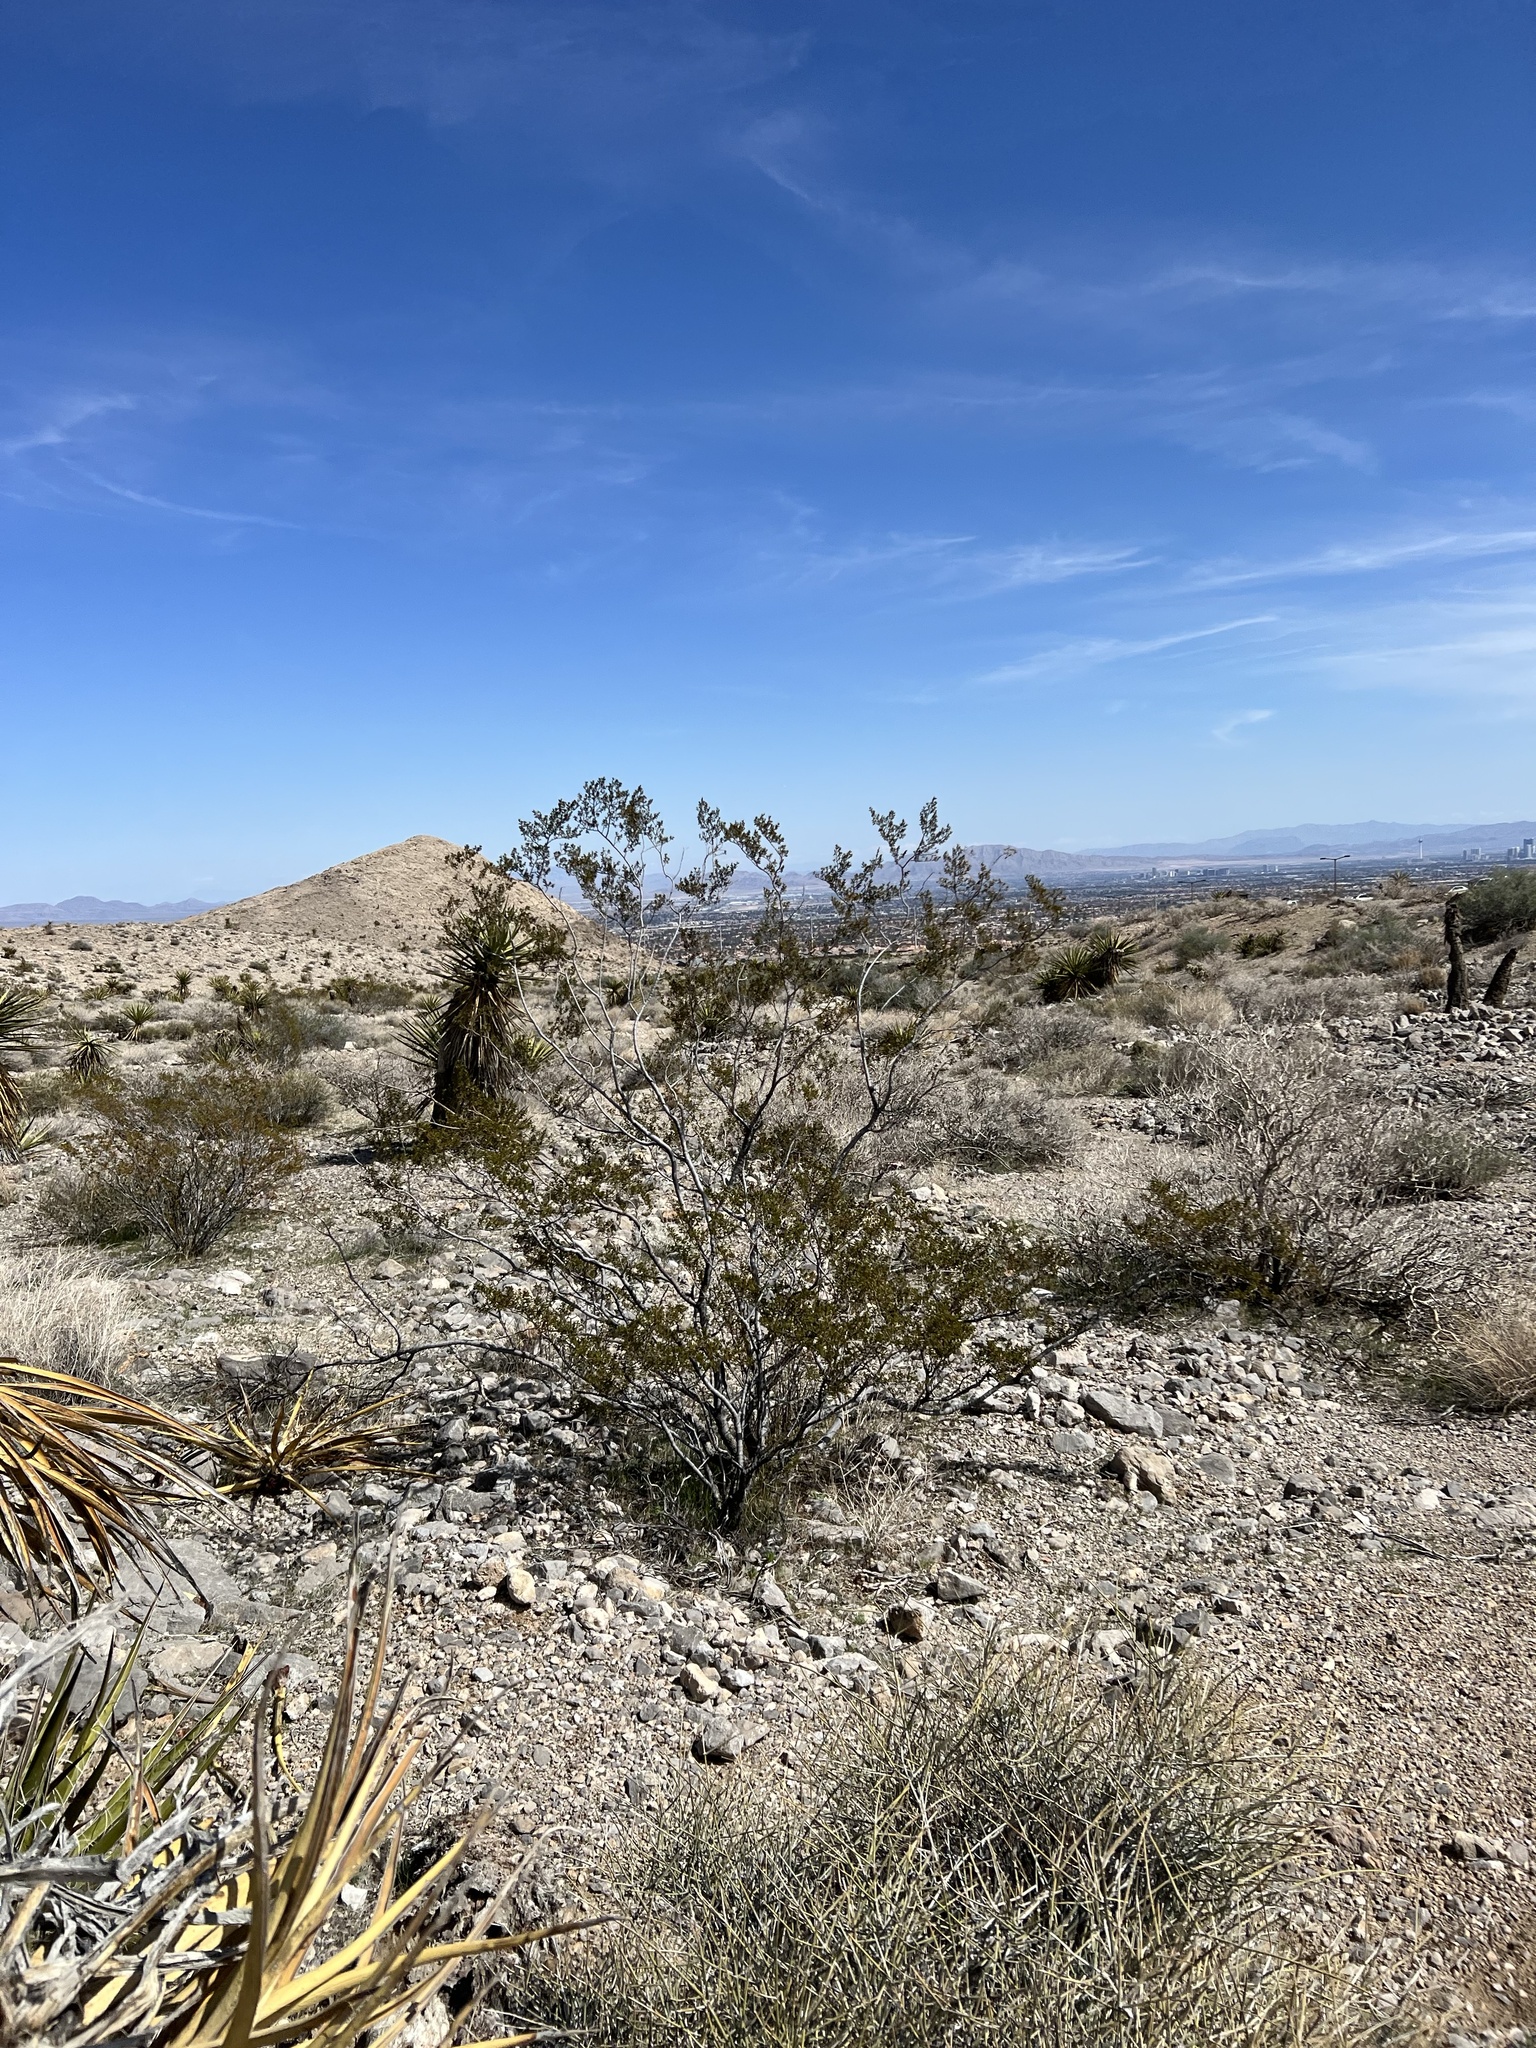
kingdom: Plantae
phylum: Tracheophyta
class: Magnoliopsida
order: Zygophyllales
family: Zygophyllaceae
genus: Larrea
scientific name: Larrea tridentata
